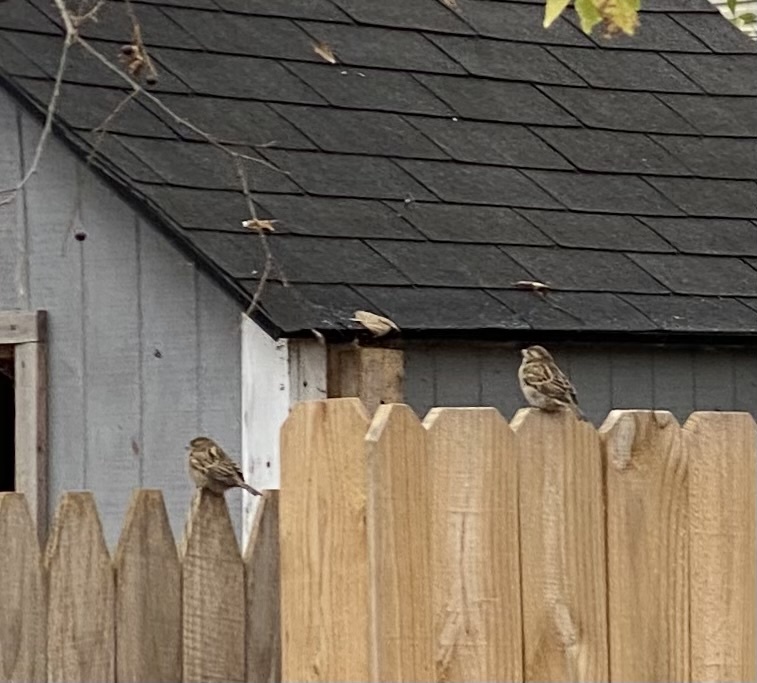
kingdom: Animalia
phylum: Chordata
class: Aves
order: Passeriformes
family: Passeridae
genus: Passer
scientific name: Passer domesticus
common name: House sparrow
